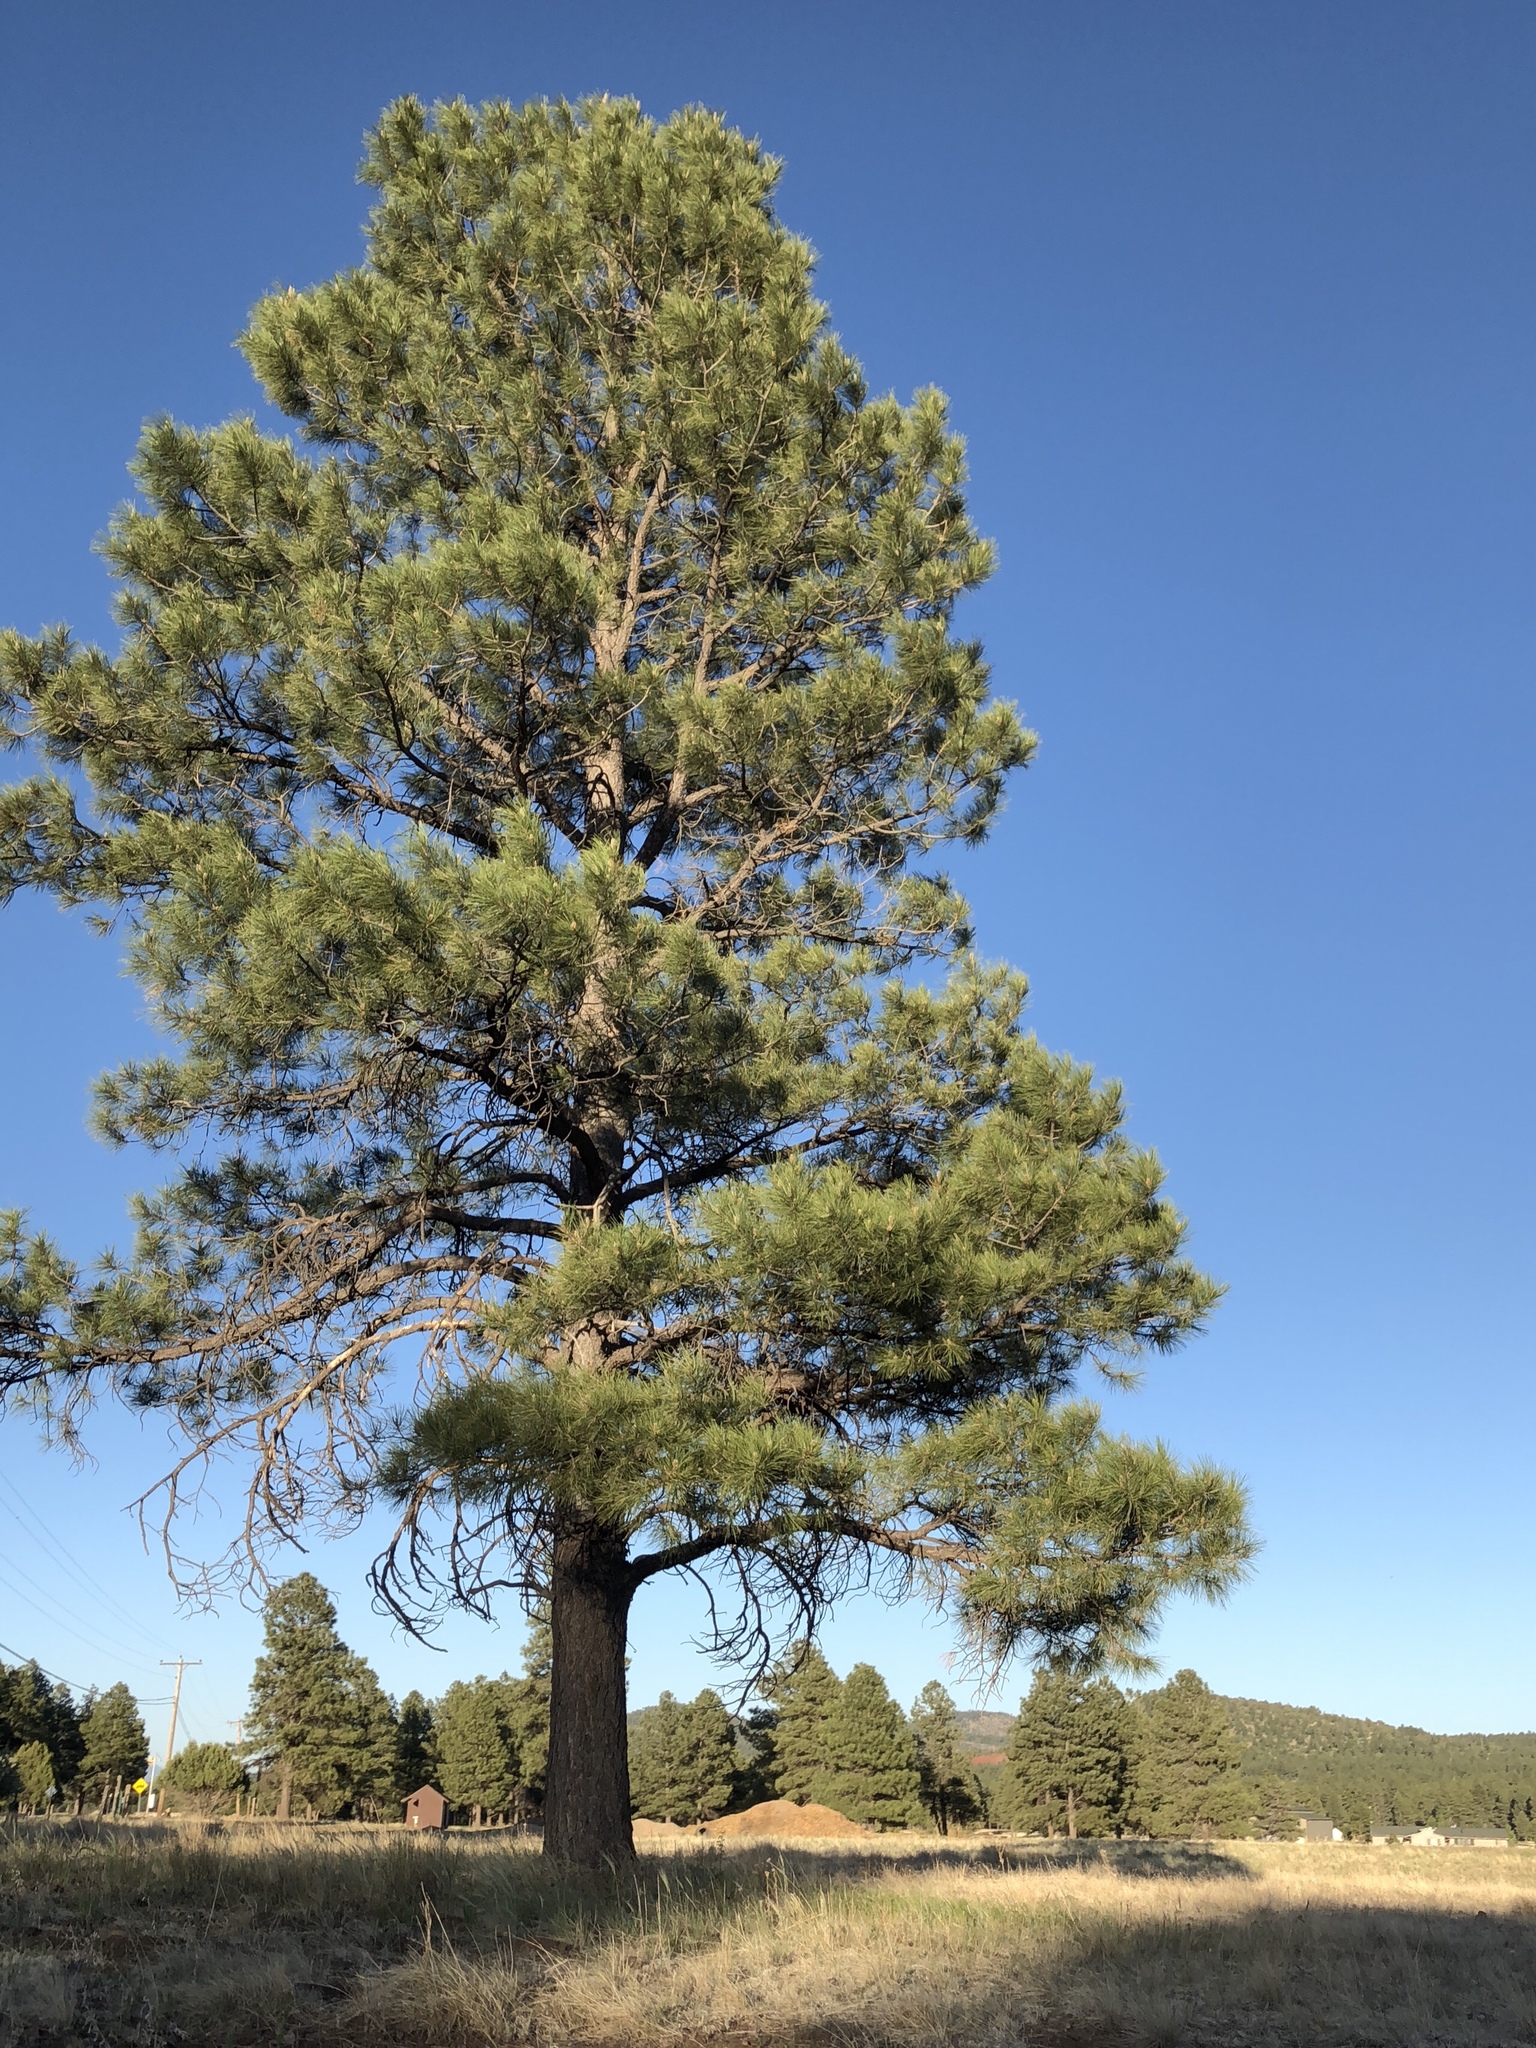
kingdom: Plantae
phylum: Tracheophyta
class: Pinopsida
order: Pinales
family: Pinaceae
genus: Pinus
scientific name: Pinus ponderosa
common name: Western yellow-pine
